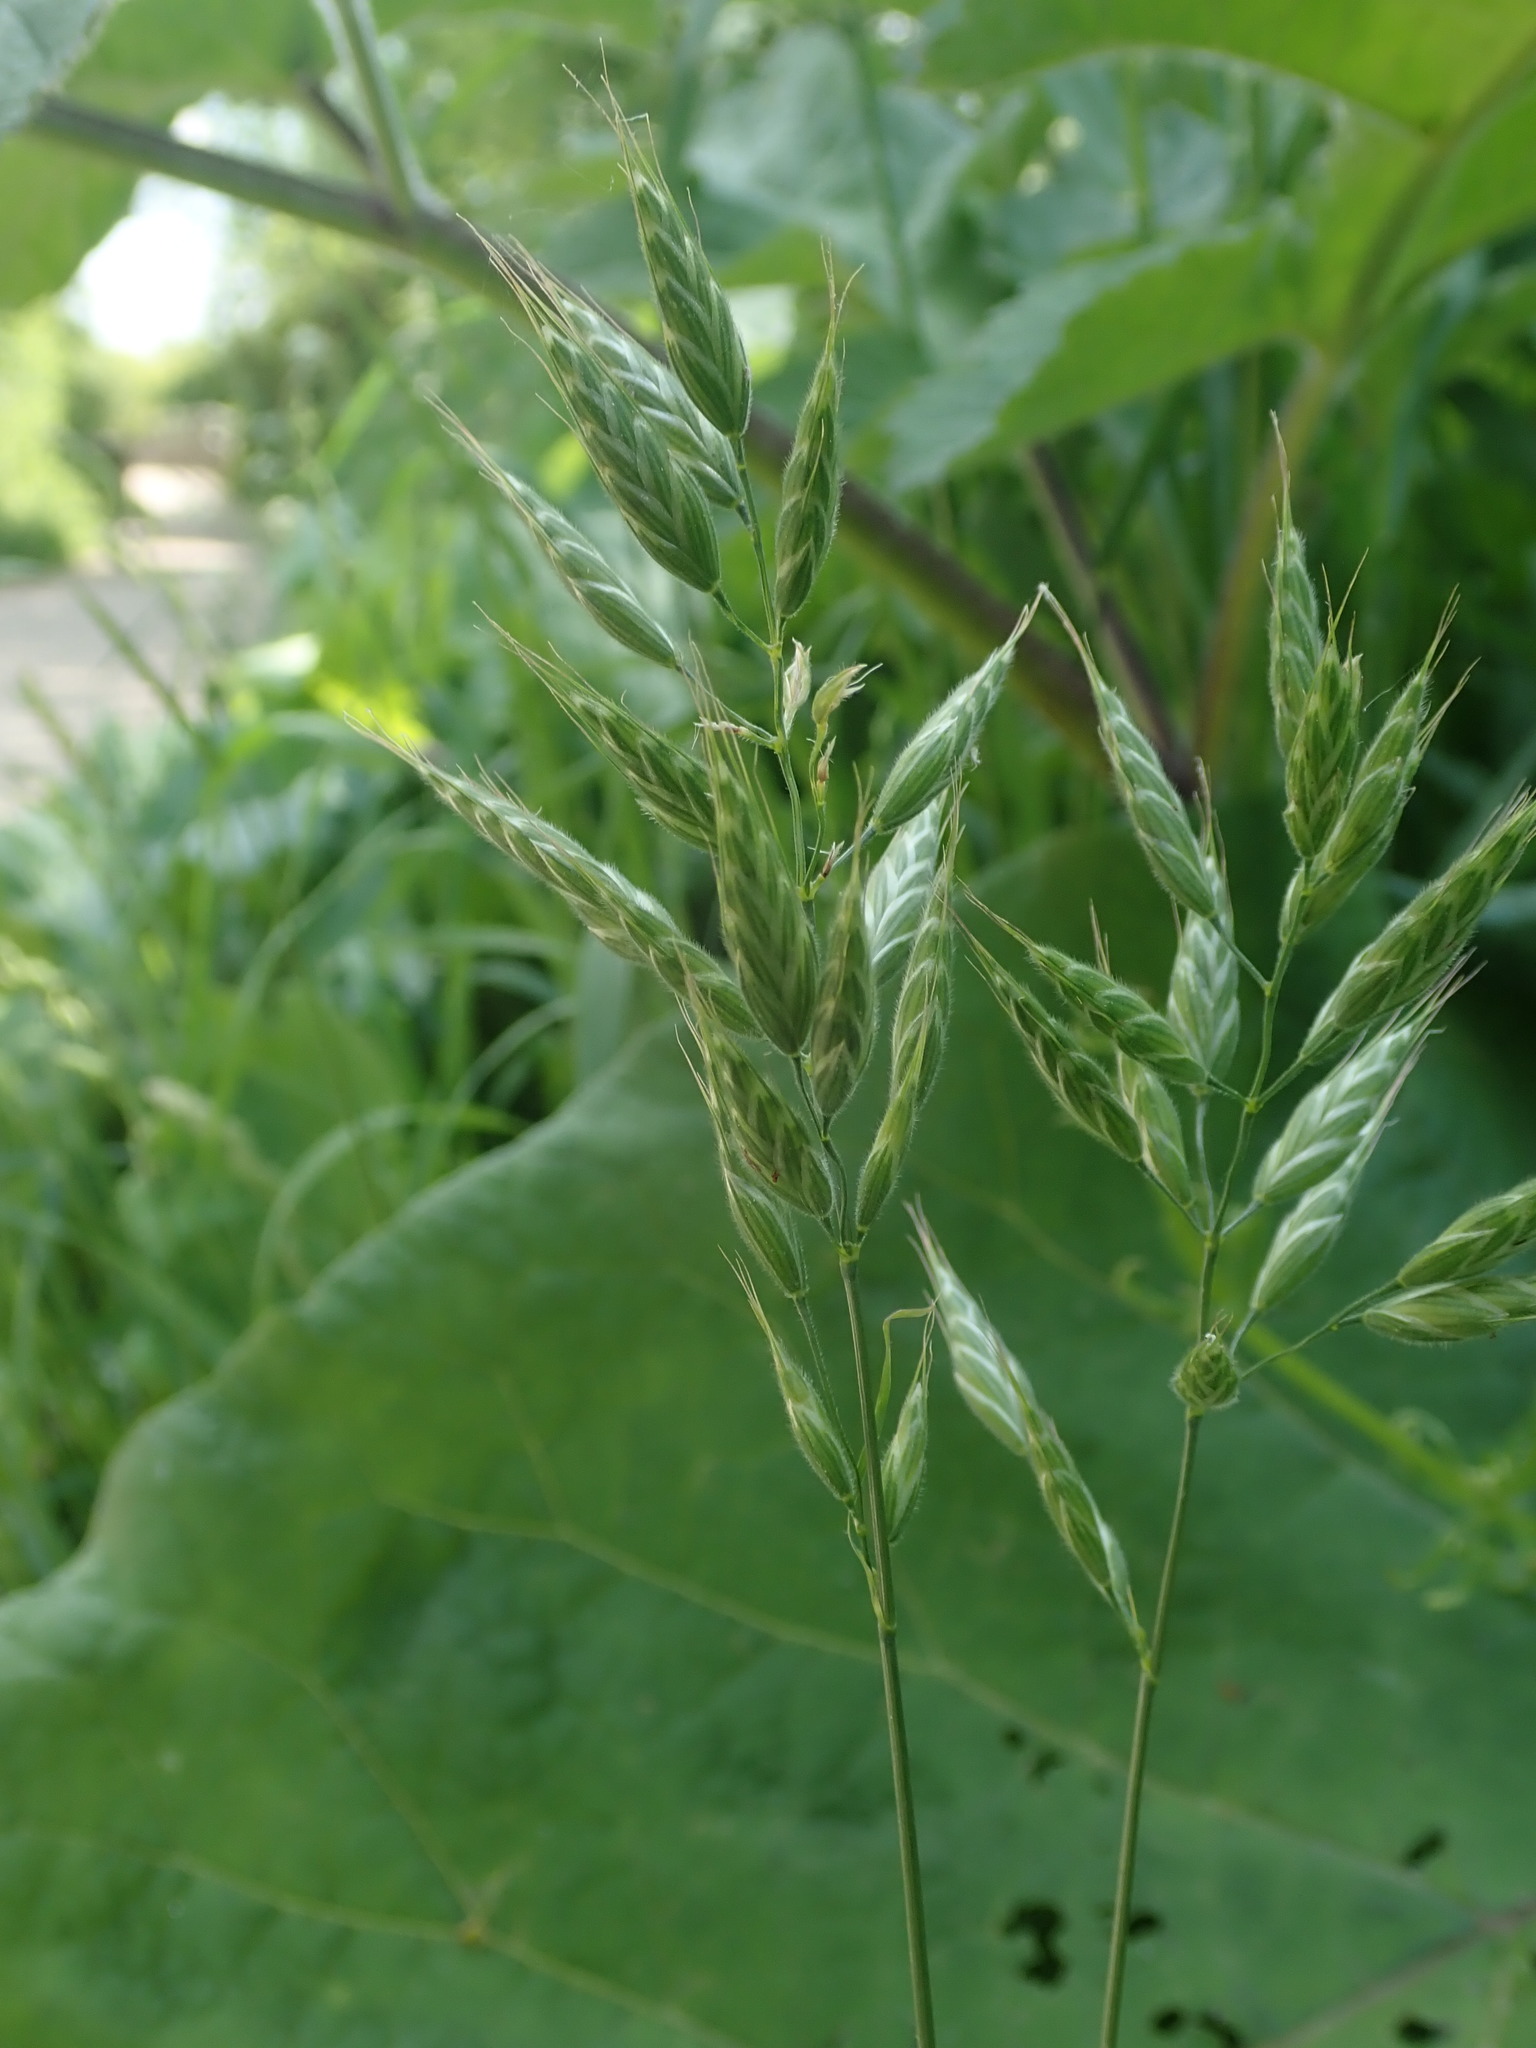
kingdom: Plantae
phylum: Tracheophyta
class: Liliopsida
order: Poales
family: Poaceae
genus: Bromus
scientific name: Bromus hordeaceus
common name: Soft brome
